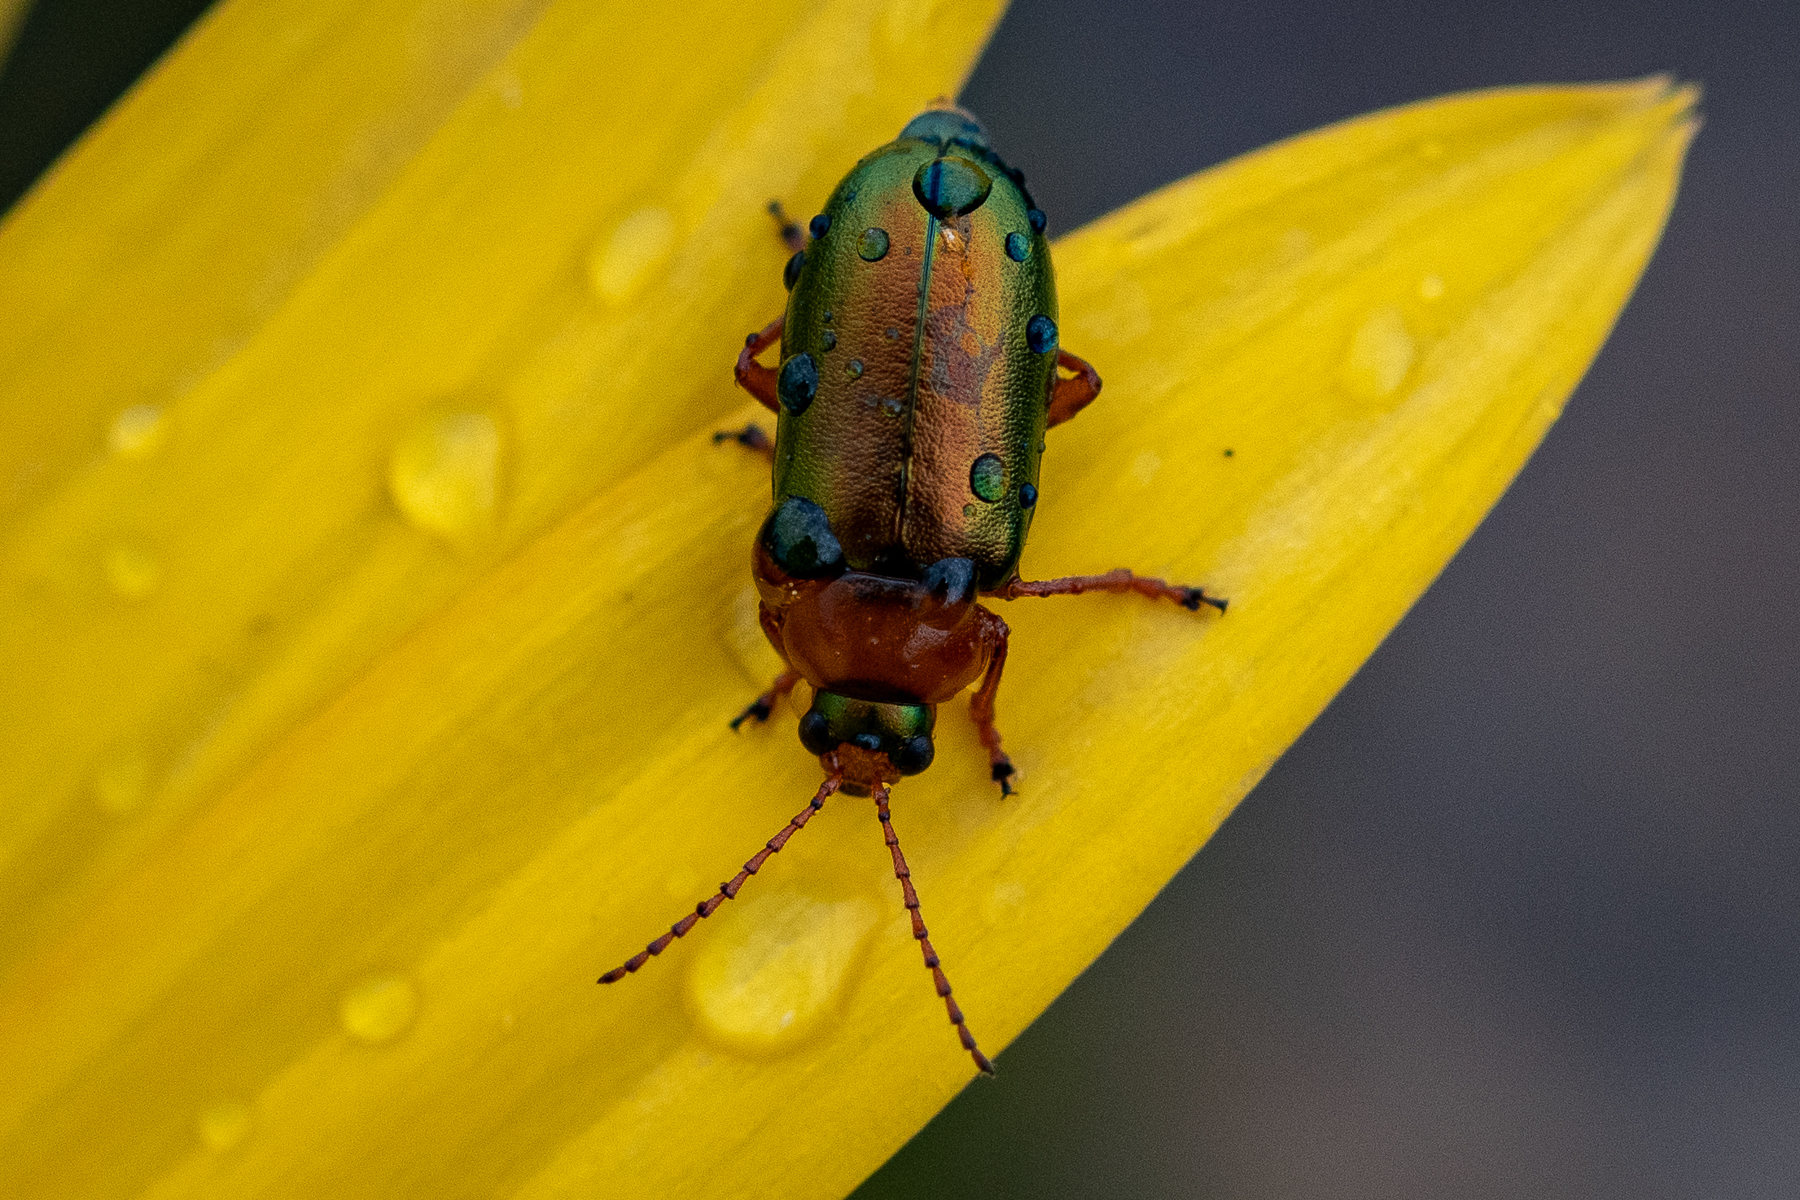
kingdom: Animalia
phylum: Arthropoda
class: Insecta
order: Coleoptera
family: Chrysomelidae
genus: Palaeophylia
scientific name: Palaeophylia
